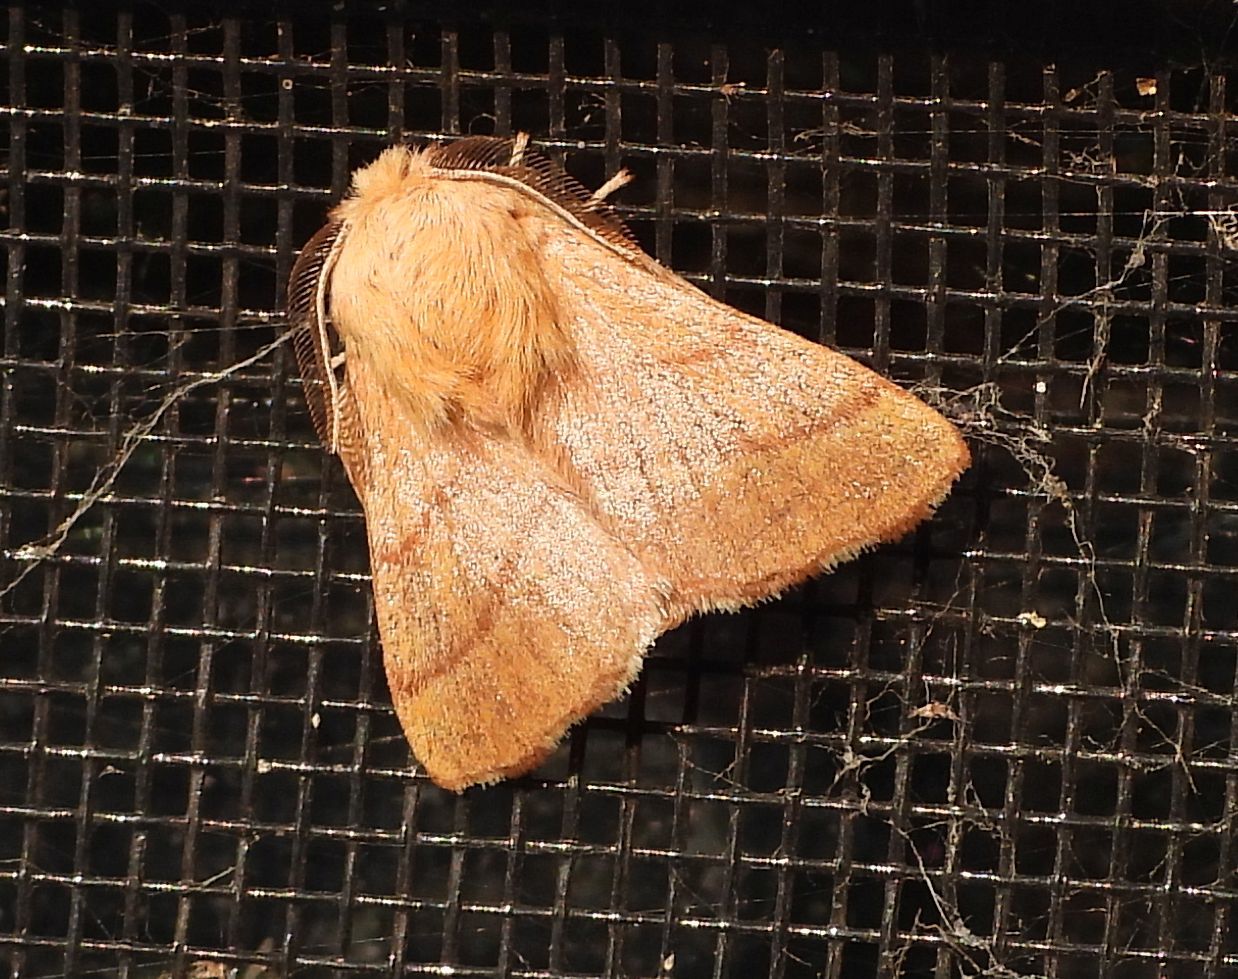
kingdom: Animalia
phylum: Arthropoda
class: Insecta
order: Lepidoptera
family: Lasiocampidae
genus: Malacosoma
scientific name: Malacosoma disstria
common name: Forest tent caterpillar
